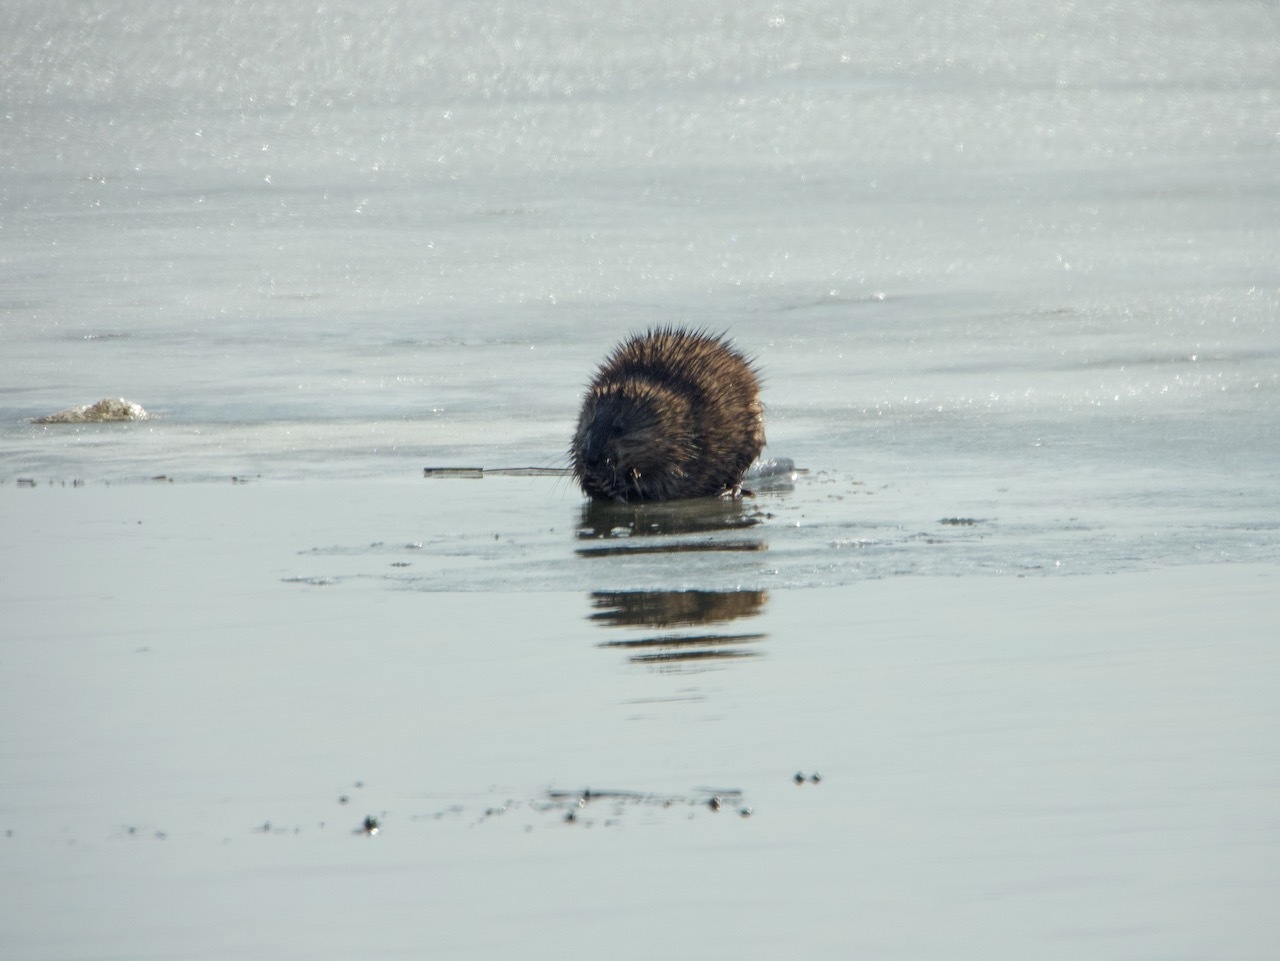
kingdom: Animalia
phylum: Chordata
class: Mammalia
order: Rodentia
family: Cricetidae
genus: Ondatra
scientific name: Ondatra zibethicus
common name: Muskrat
